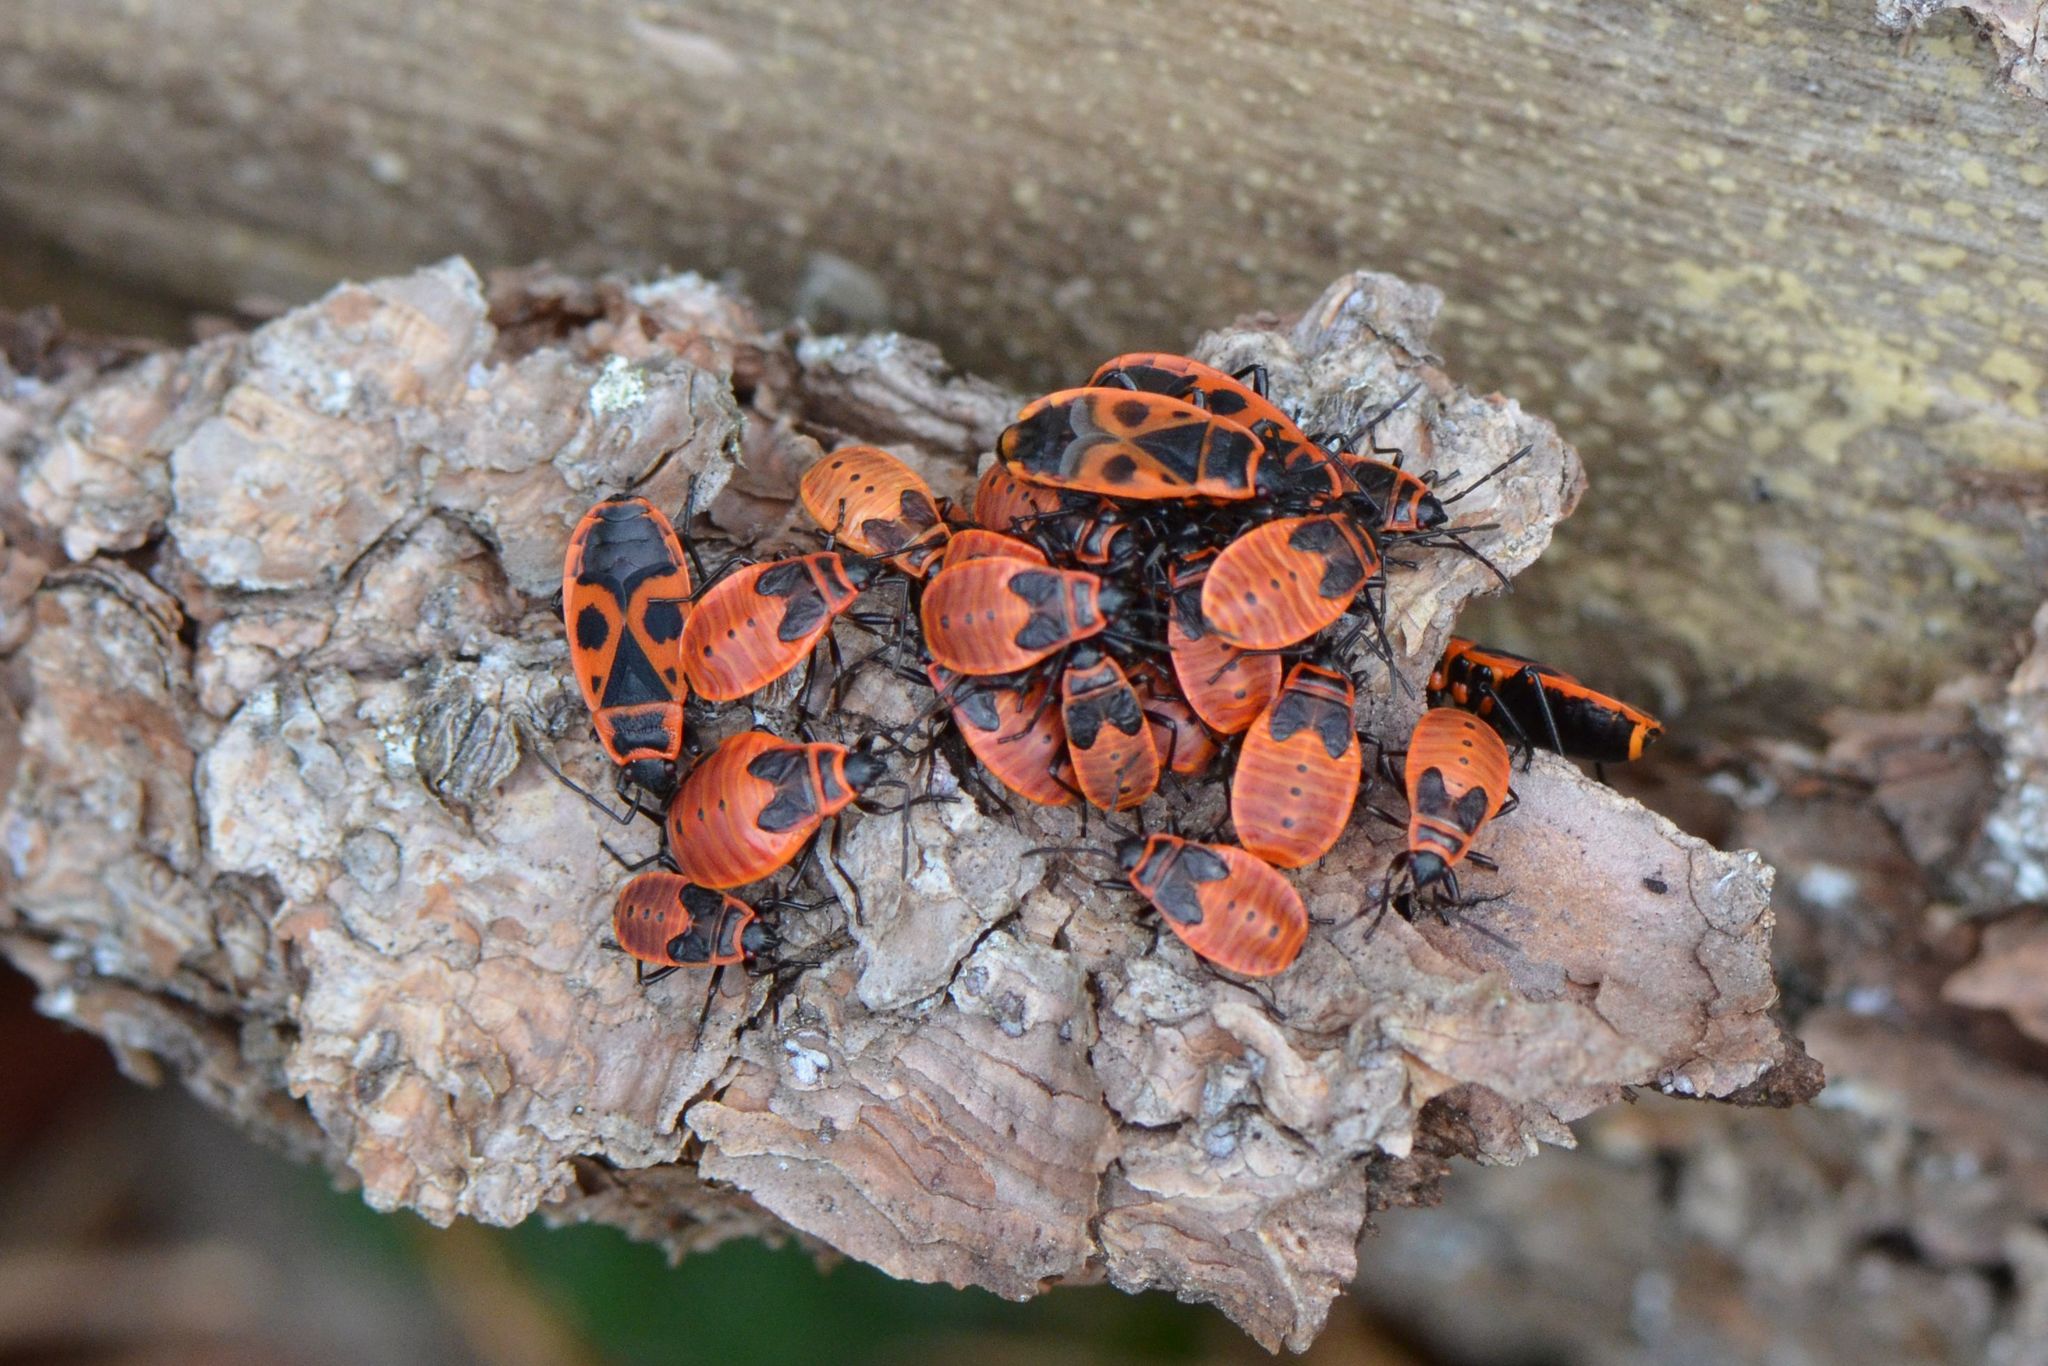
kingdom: Animalia
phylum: Arthropoda
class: Insecta
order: Hemiptera
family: Pyrrhocoridae
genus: Pyrrhocoris
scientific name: Pyrrhocoris apterus
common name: Firebug
